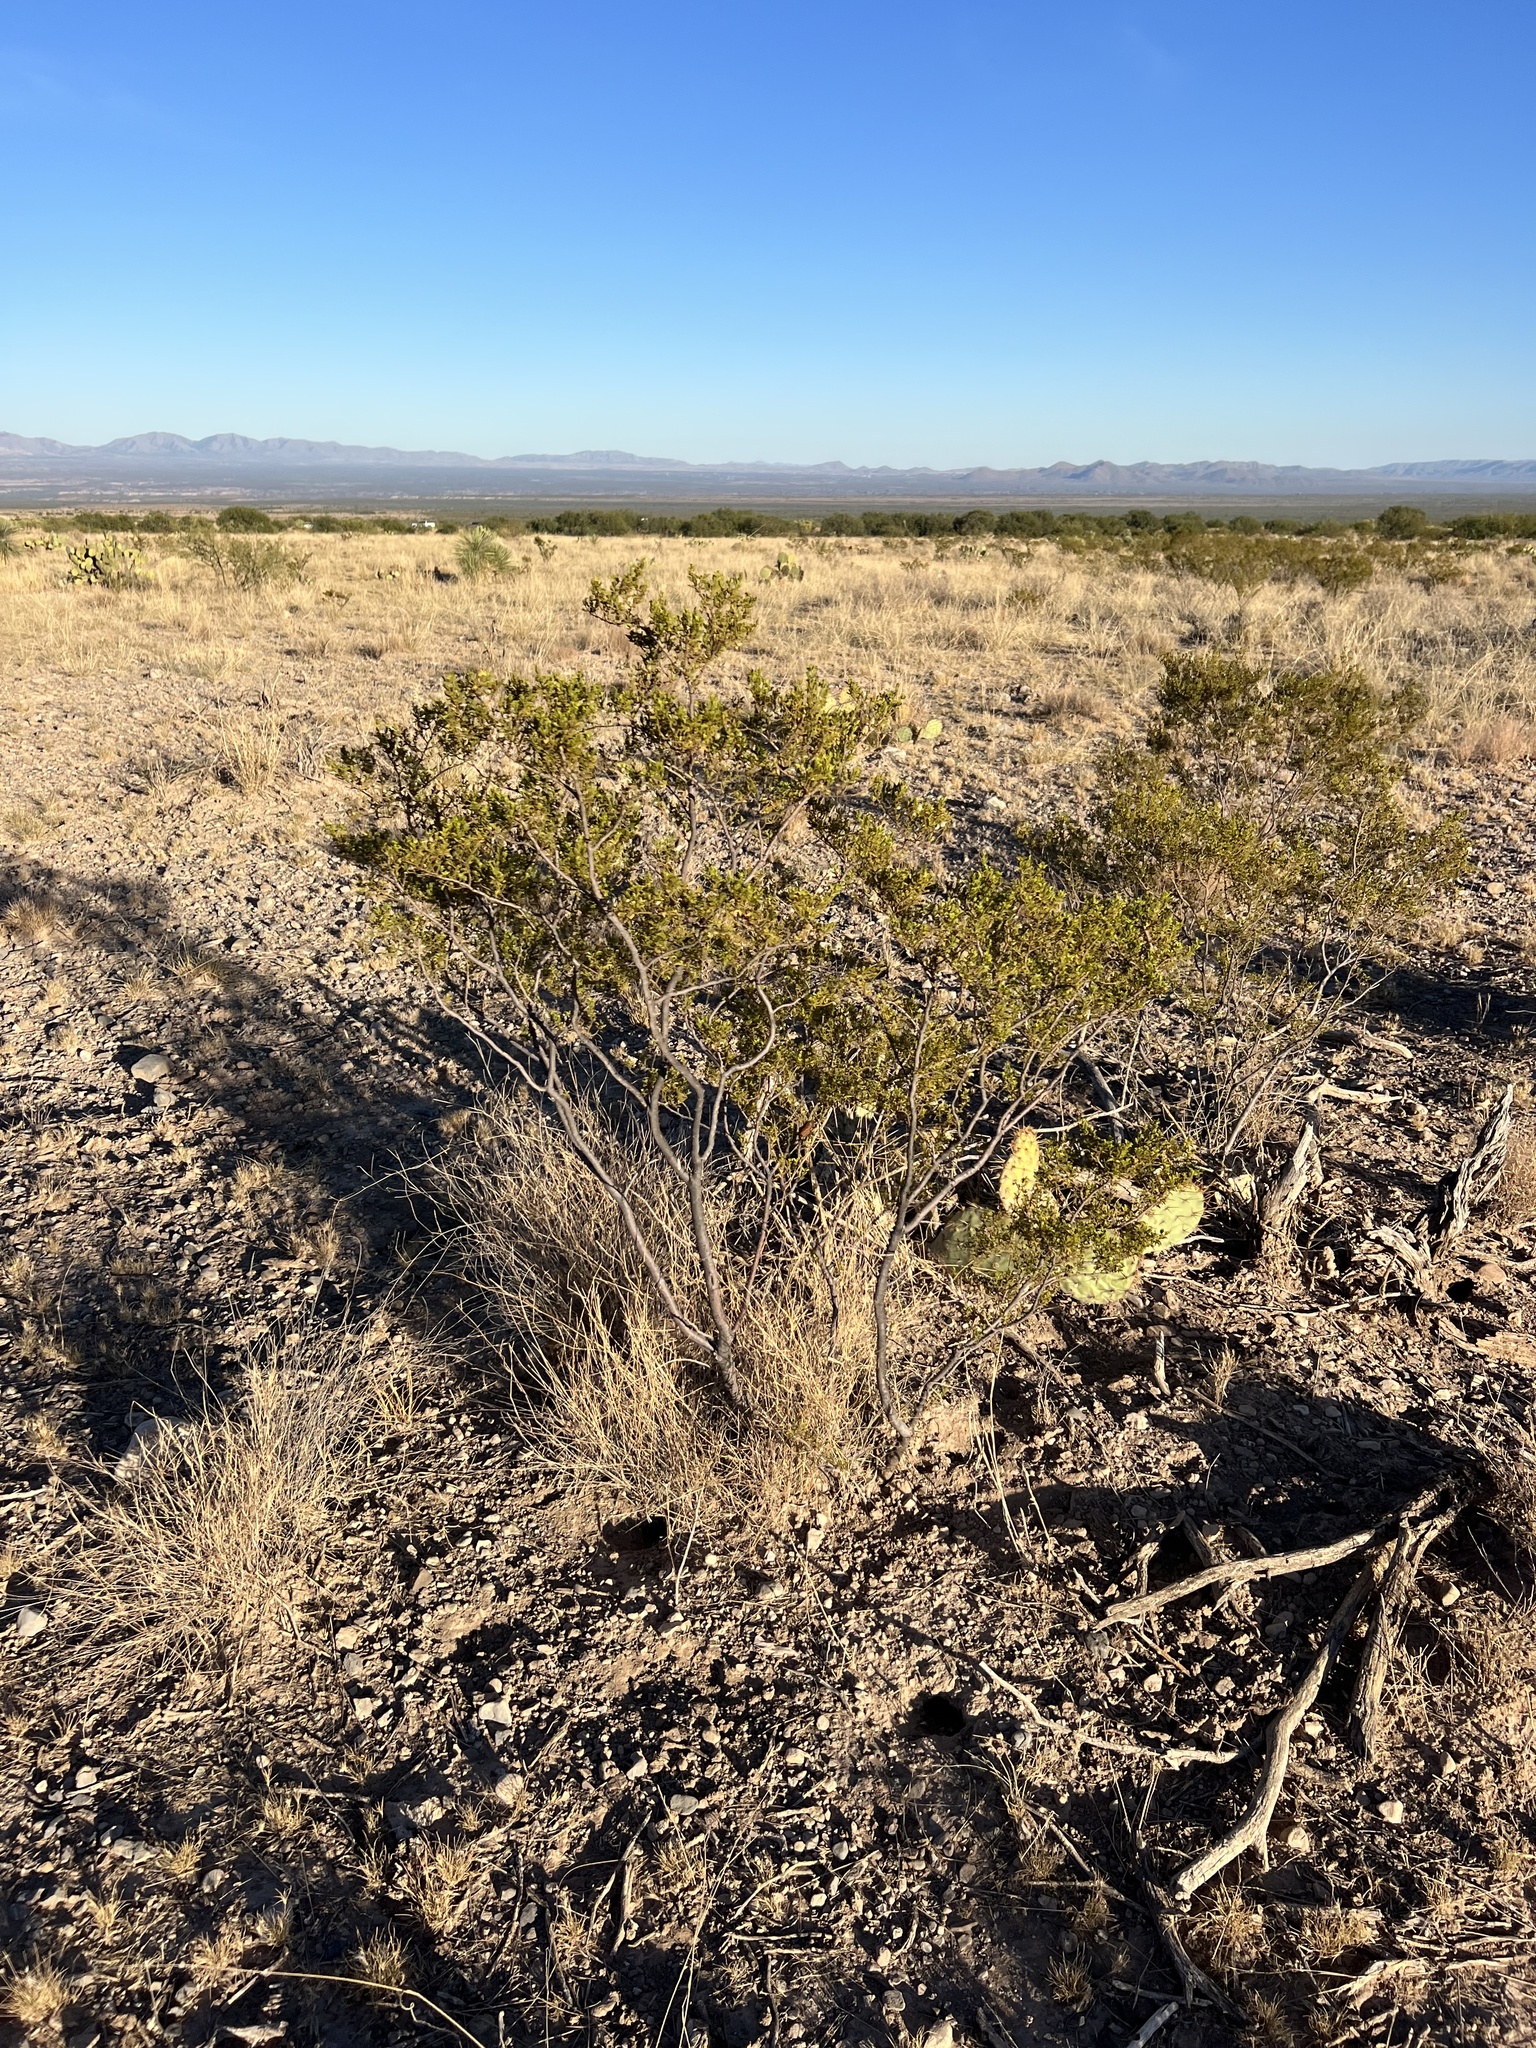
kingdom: Plantae
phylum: Tracheophyta
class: Magnoliopsida
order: Zygophyllales
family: Zygophyllaceae
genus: Larrea
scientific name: Larrea tridentata
